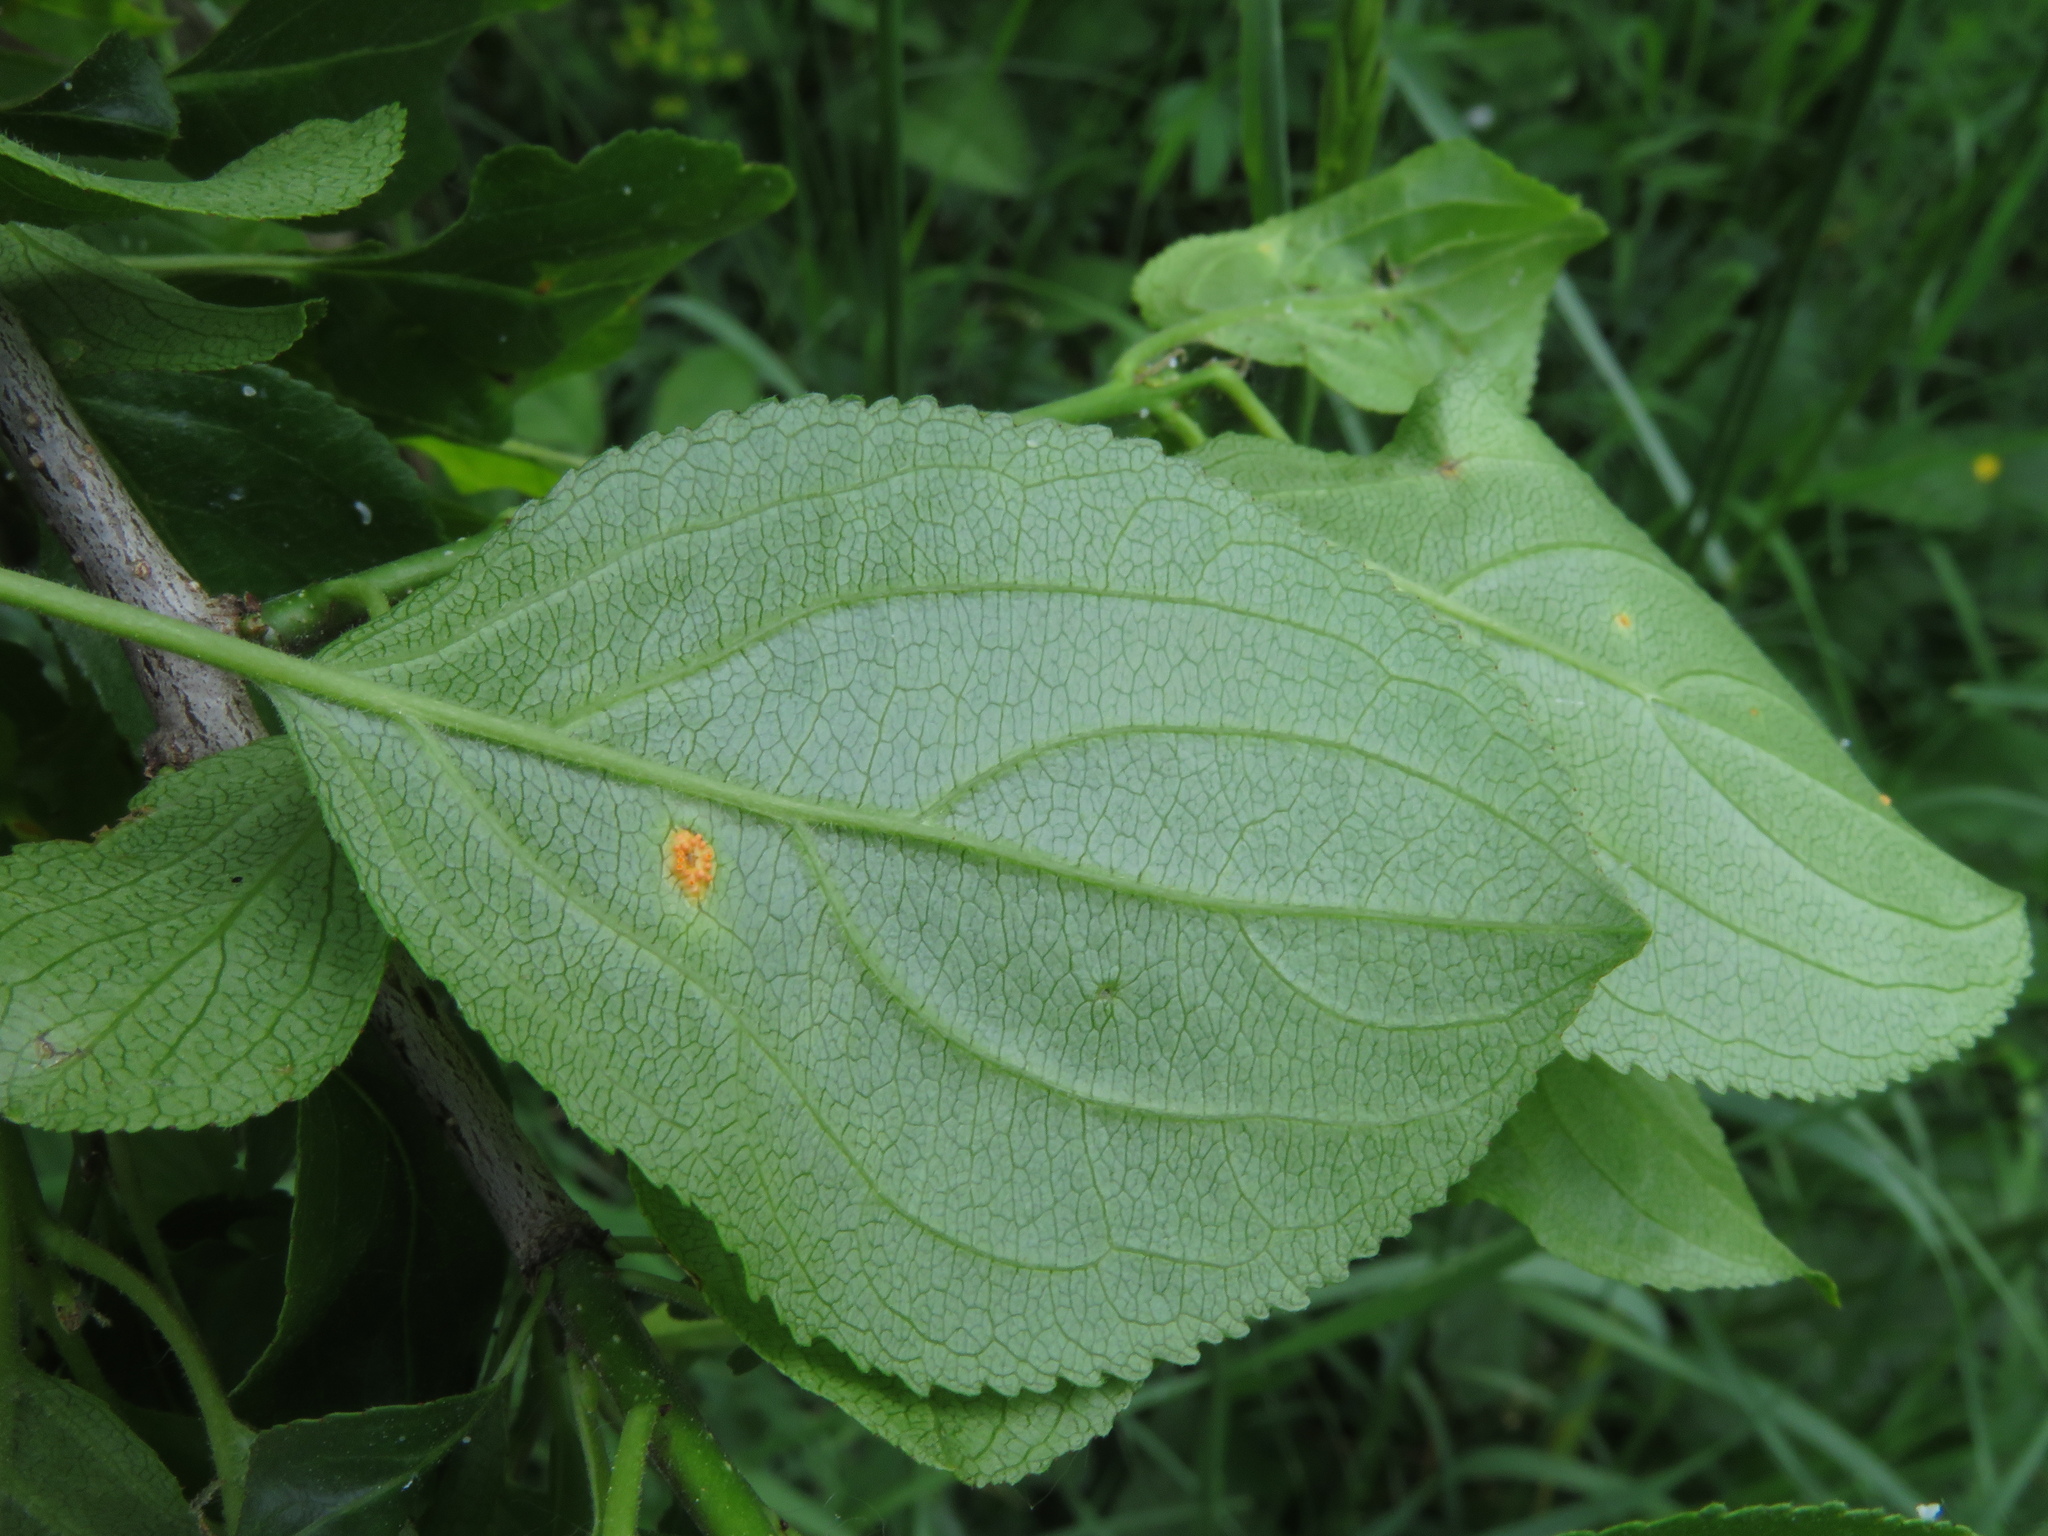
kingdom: Plantae
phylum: Tracheophyta
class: Magnoliopsida
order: Rosales
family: Rhamnaceae
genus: Rhamnus
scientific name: Rhamnus cathartica
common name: Common buckthorn
